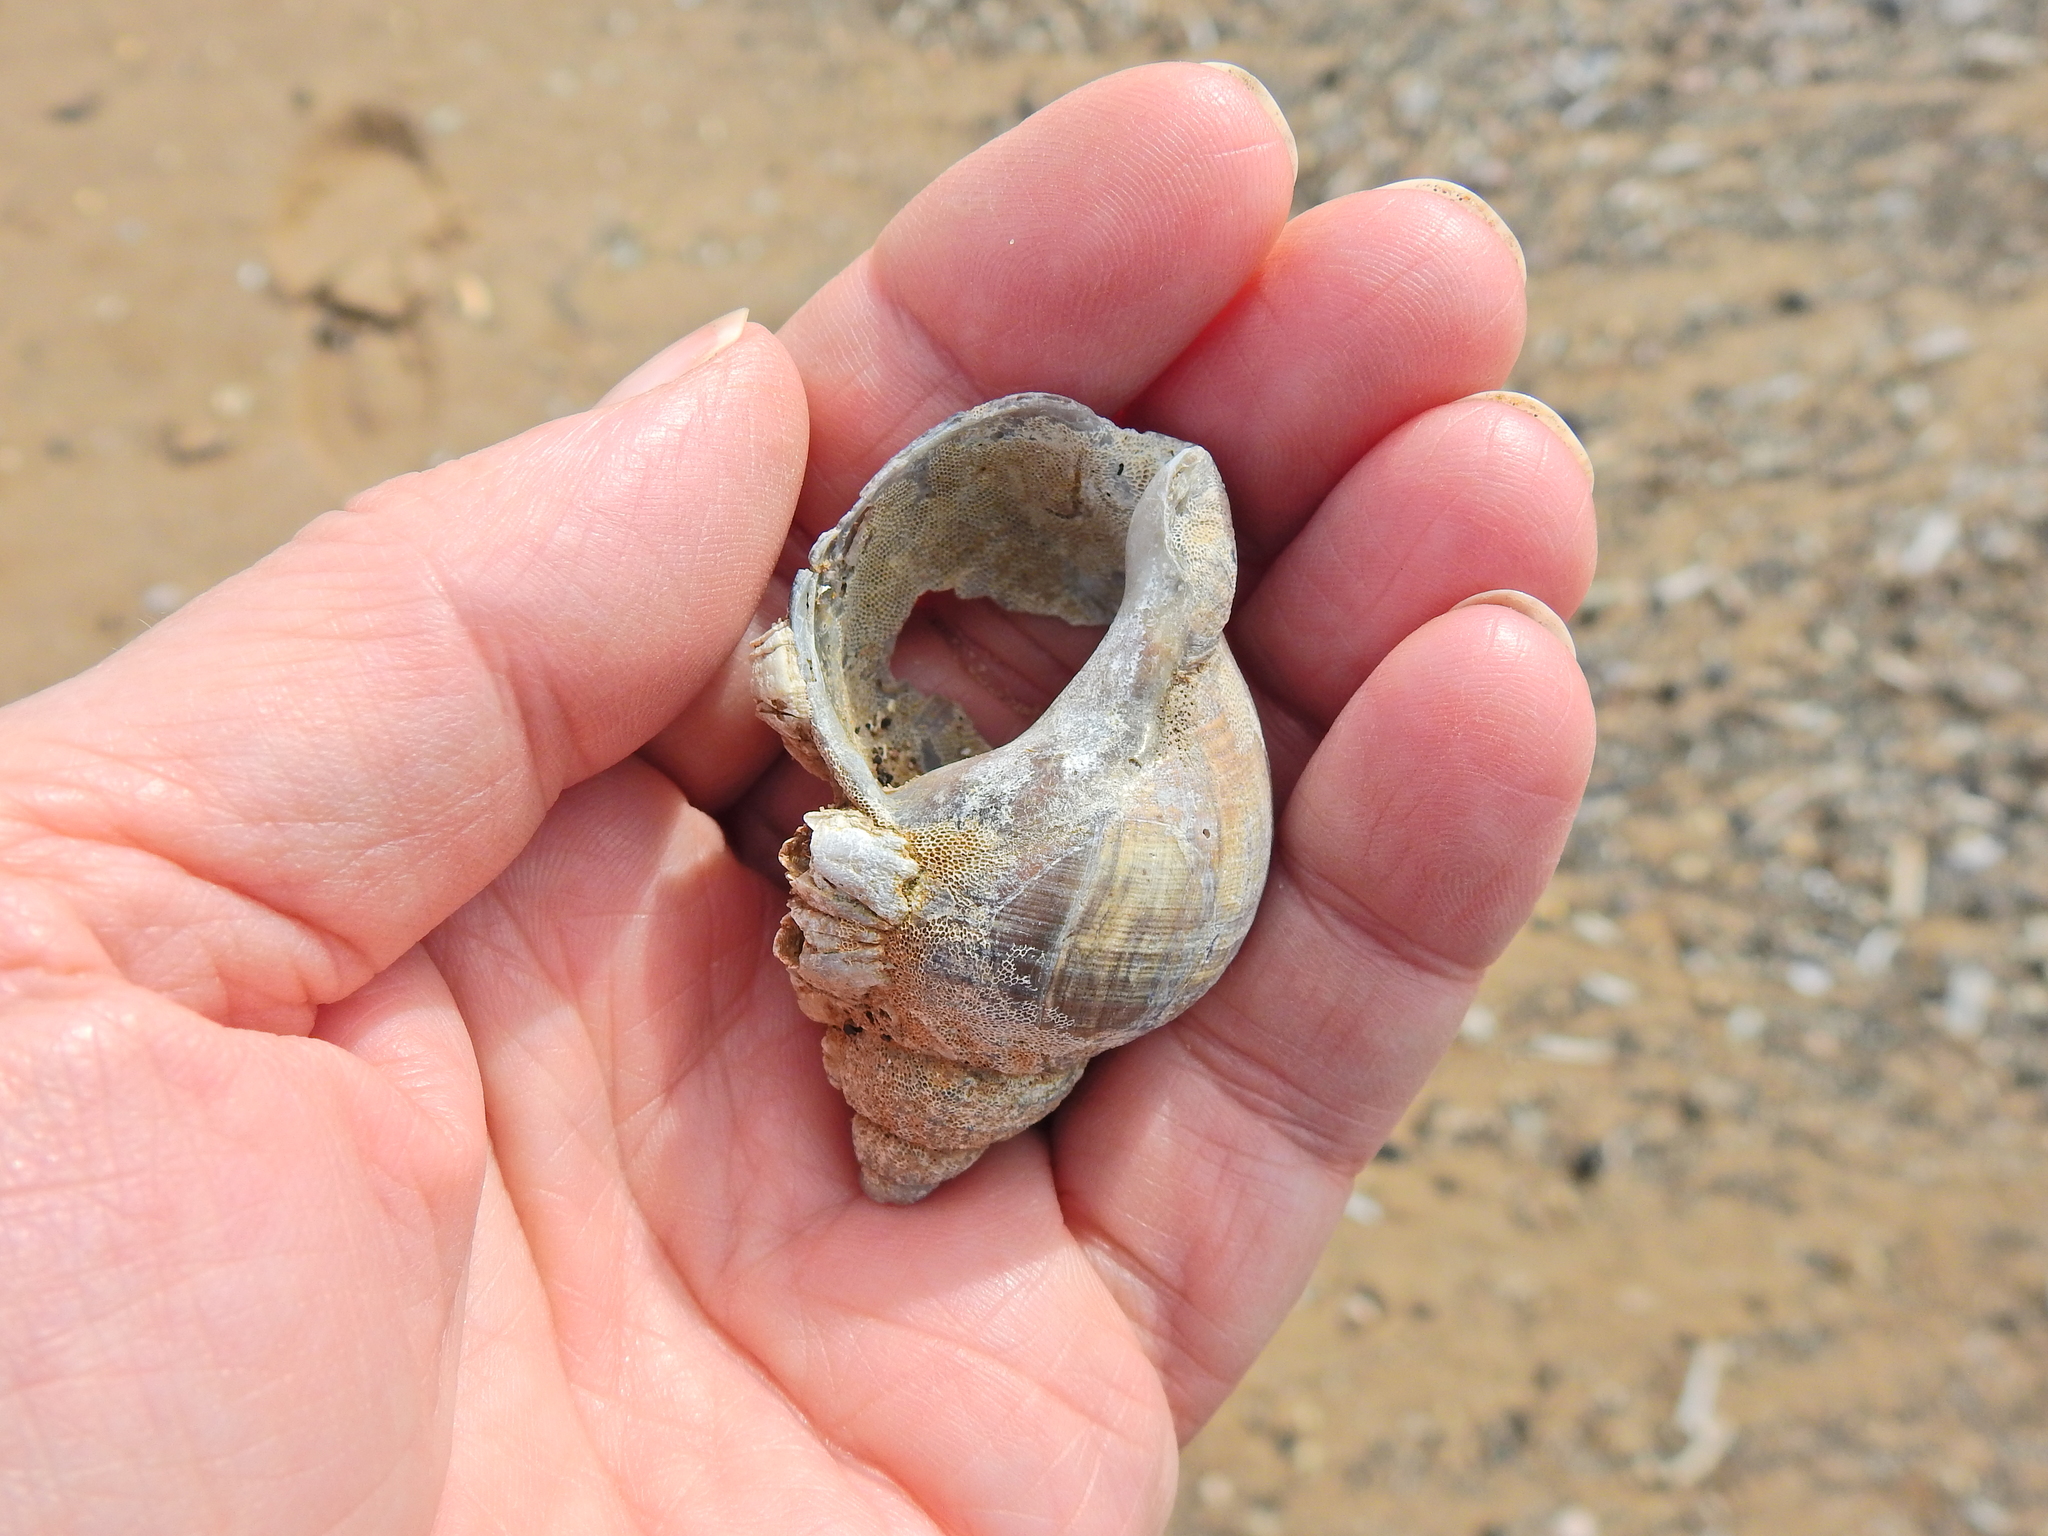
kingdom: Animalia
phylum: Mollusca
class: Gastropoda
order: Neogastropoda
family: Buccinidae
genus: Buccinum
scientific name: Buccinum undatum
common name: Common whelk
